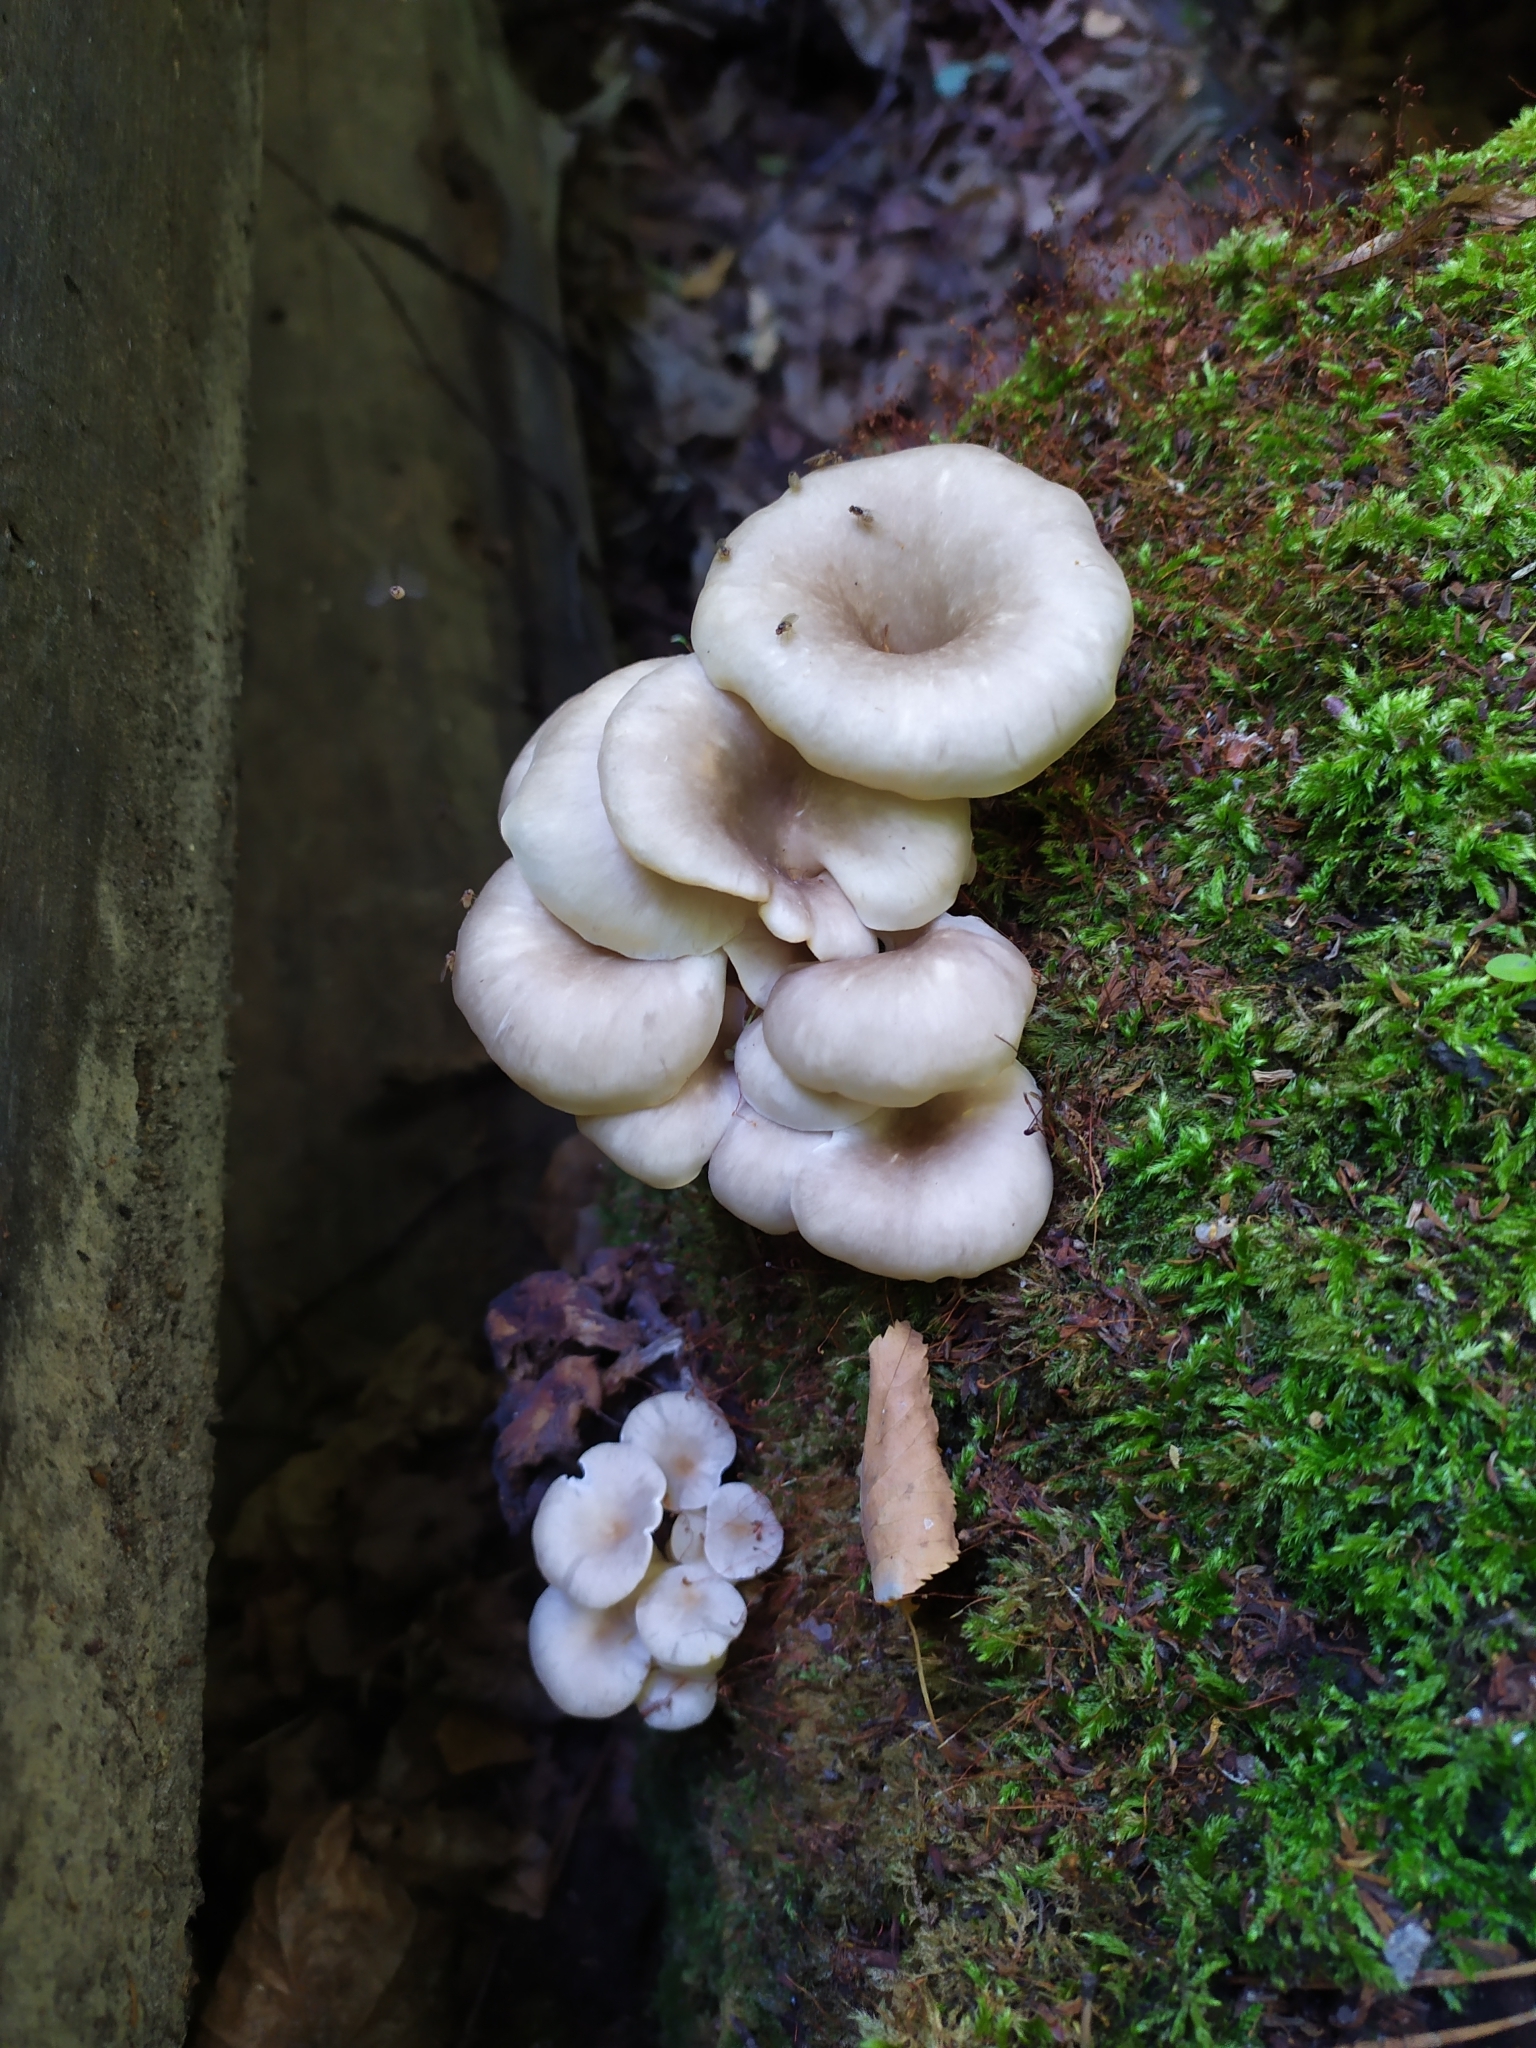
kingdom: Fungi
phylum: Basidiomycota
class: Agaricomycetes
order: Agaricales
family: Pleurotaceae
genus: Pleurotus
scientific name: Pleurotus cornucopiae
